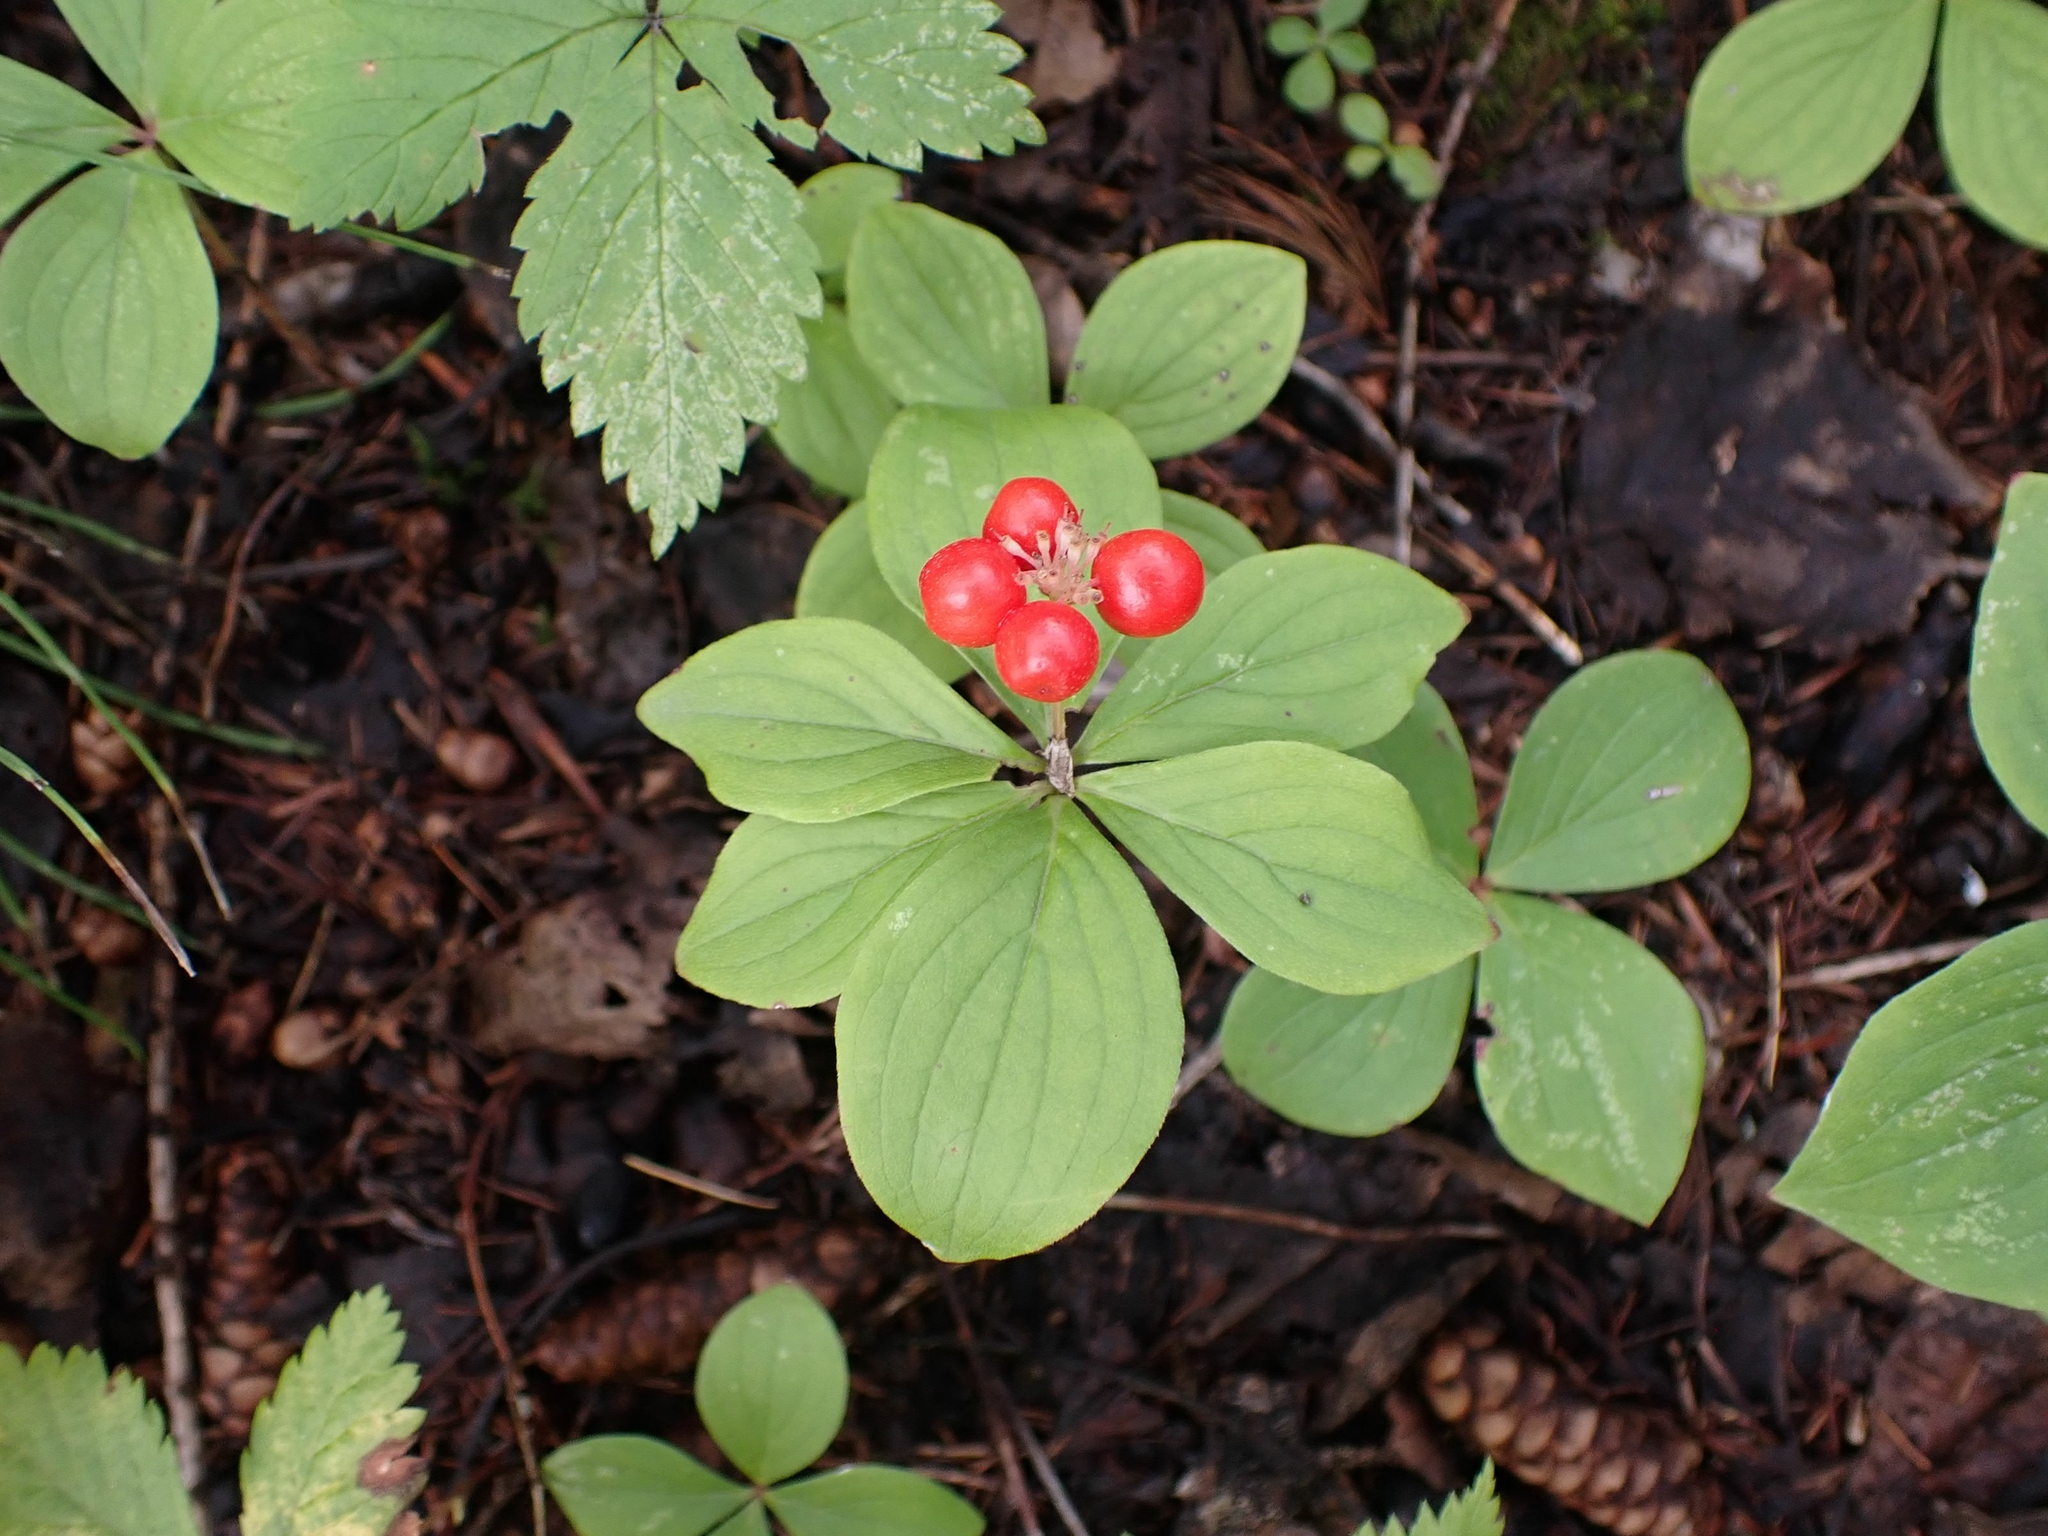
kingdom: Plantae
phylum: Tracheophyta
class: Magnoliopsida
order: Cornales
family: Cornaceae
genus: Cornus
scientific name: Cornus canadensis
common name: Creeping dogwood
